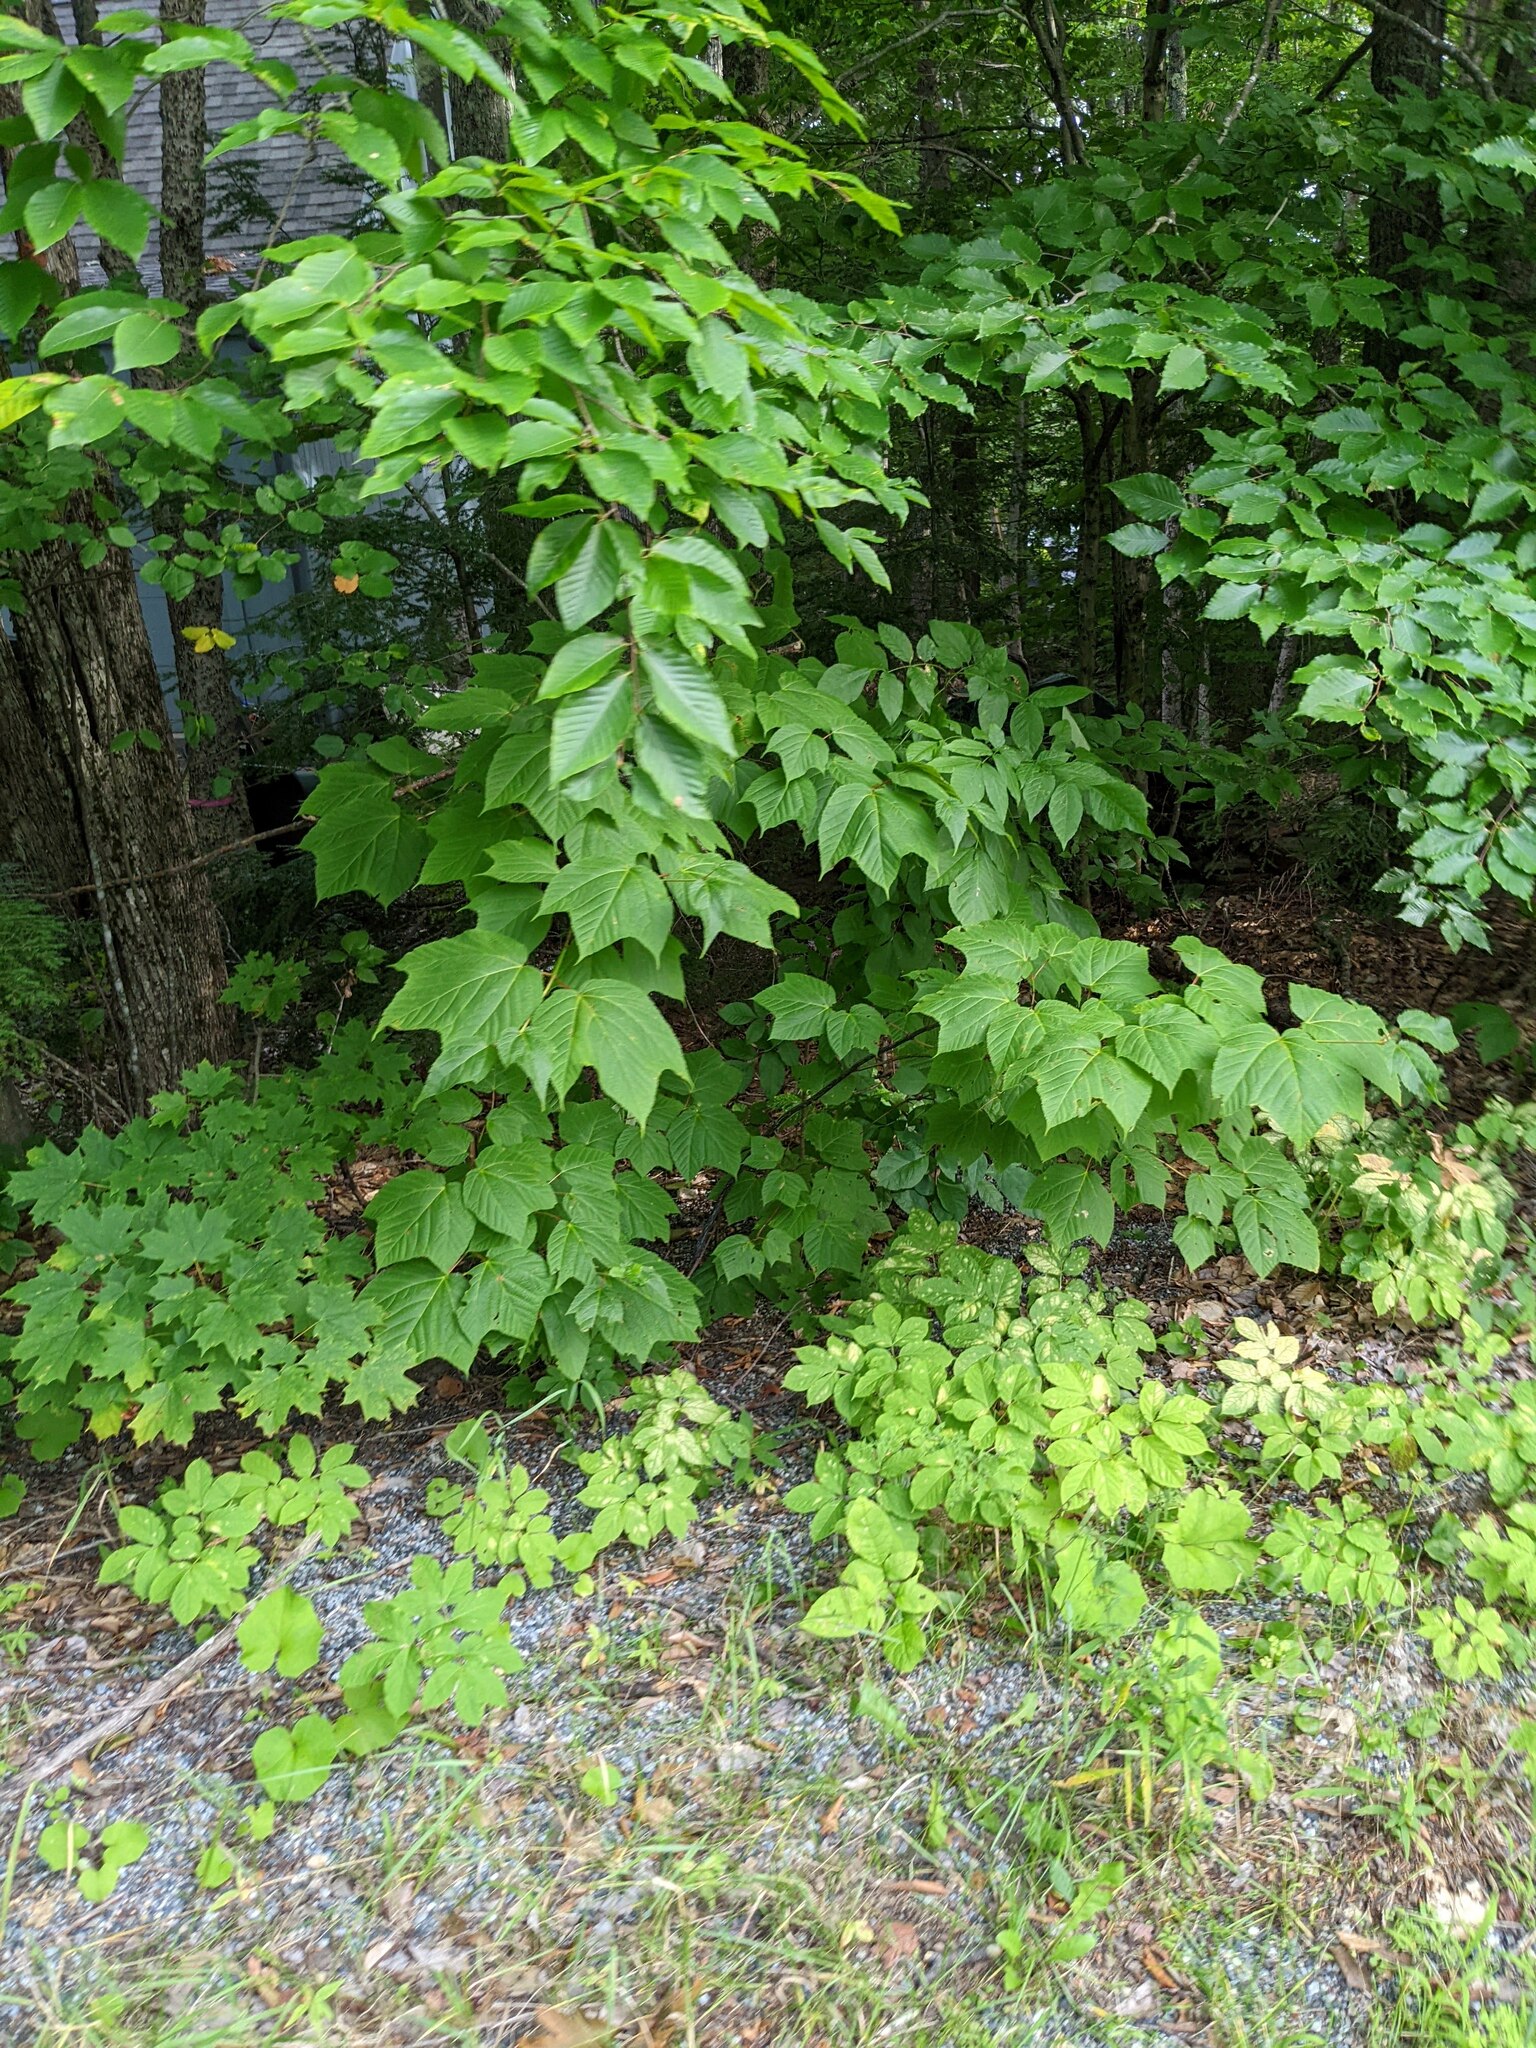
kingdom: Plantae
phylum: Tracheophyta
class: Magnoliopsida
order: Sapindales
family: Sapindaceae
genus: Acer
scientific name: Acer pensylvanicum
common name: Moosewood
